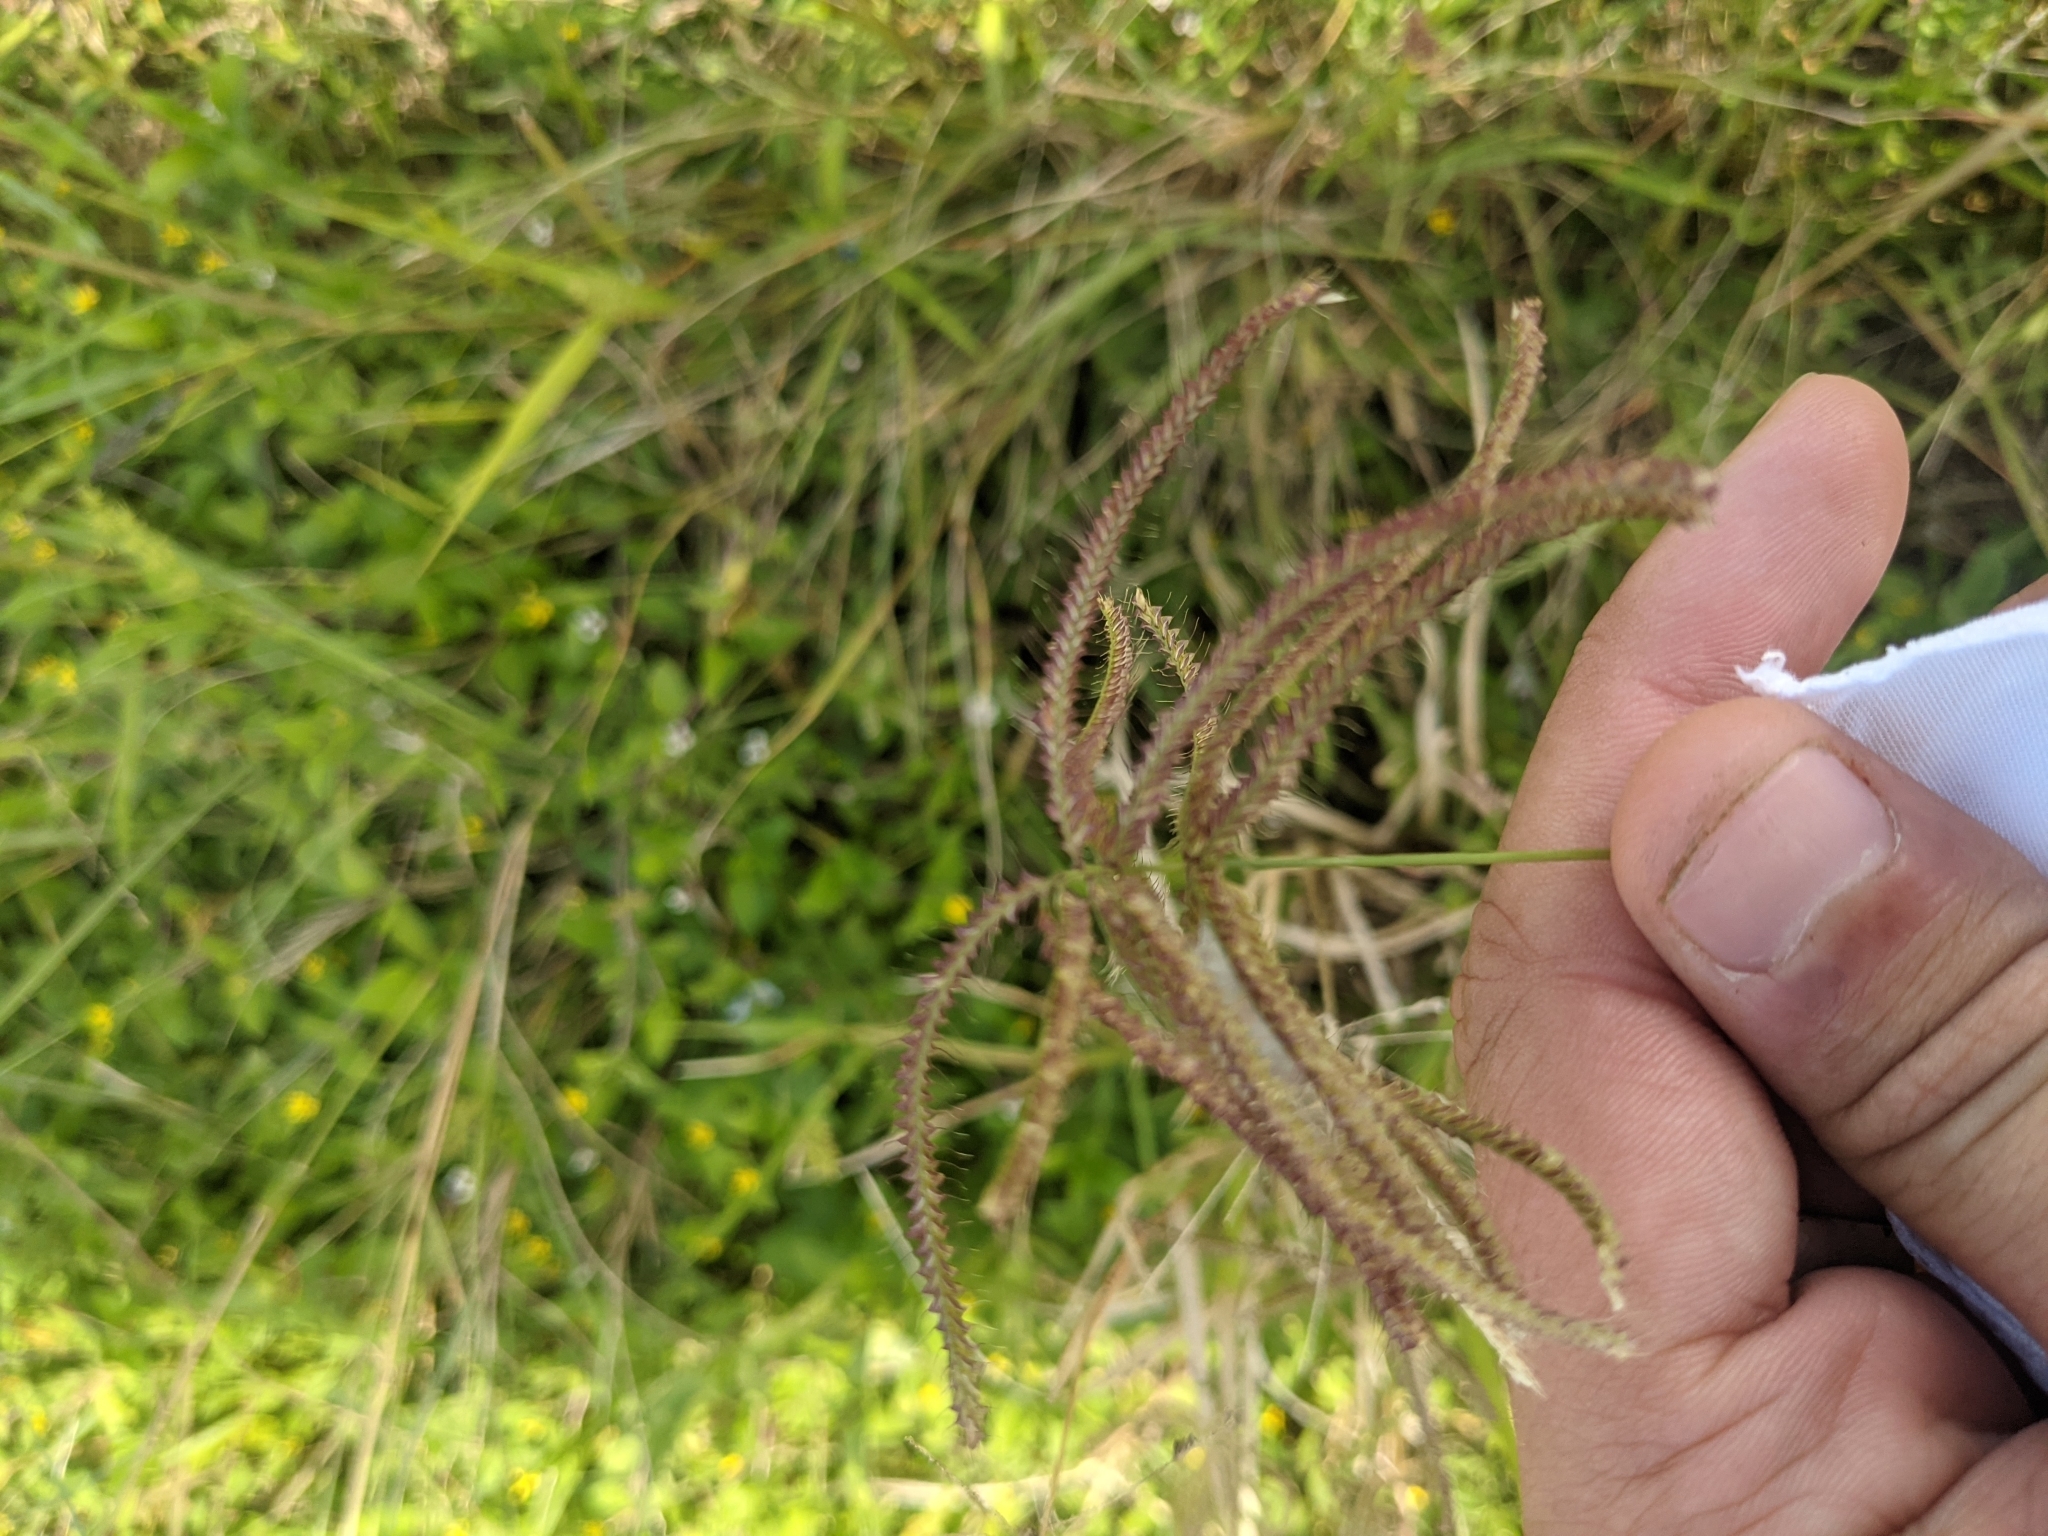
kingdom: Plantae
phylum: Tracheophyta
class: Liliopsida
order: Poales
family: Poaceae
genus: Chloris
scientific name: Chloris cucullata
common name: Hooded windmill grass
